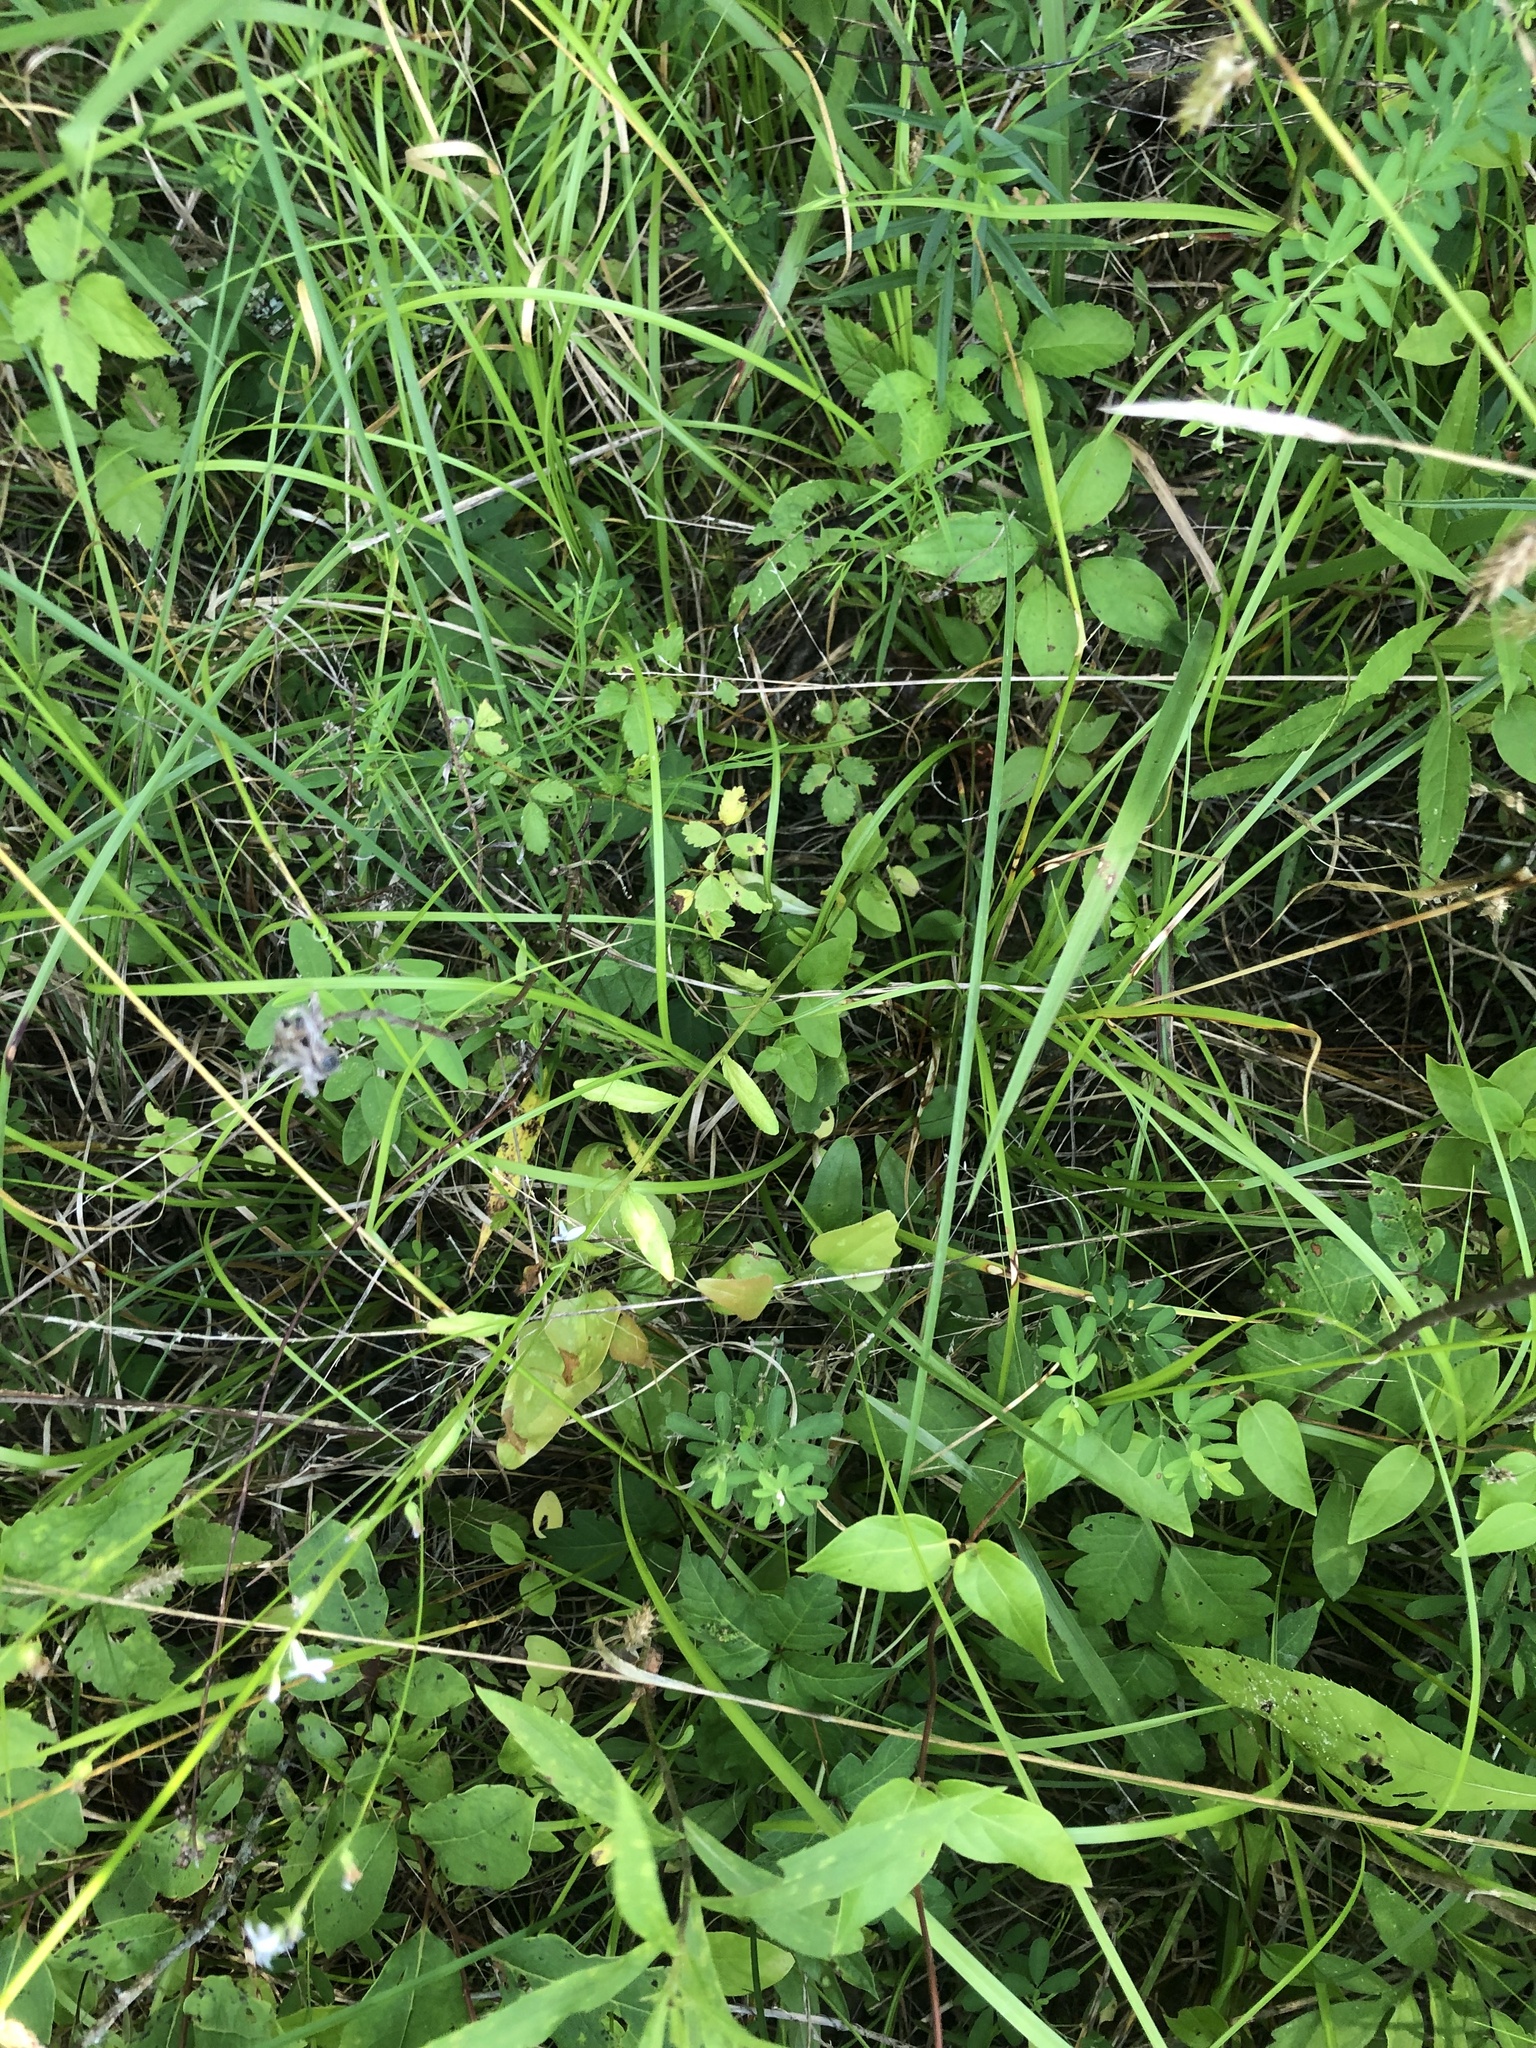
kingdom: Plantae
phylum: Tracheophyta
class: Magnoliopsida
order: Asterales
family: Campanulaceae
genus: Lobelia
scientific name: Lobelia appendiculata
